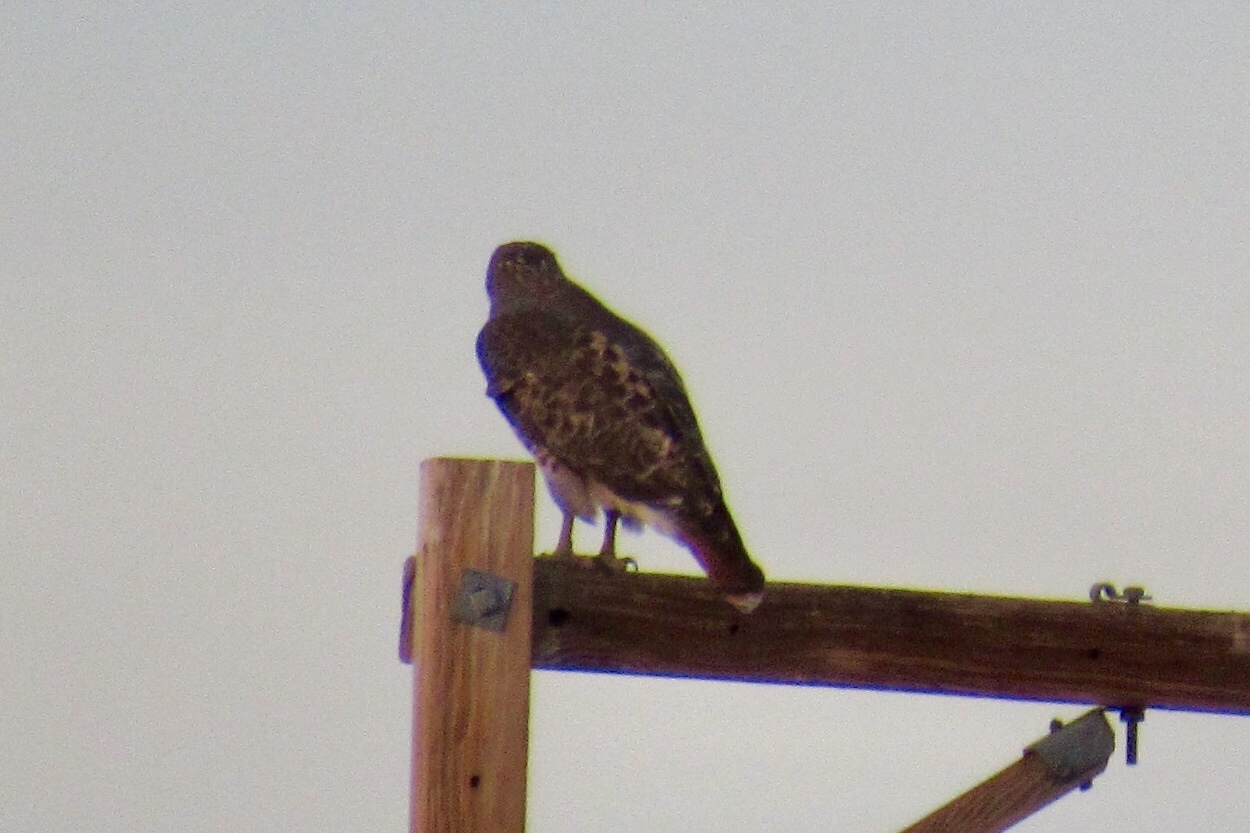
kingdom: Animalia
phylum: Chordata
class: Aves
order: Accipitriformes
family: Accipitridae
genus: Buteo
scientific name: Buteo jamaicensis
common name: Red-tailed hawk
